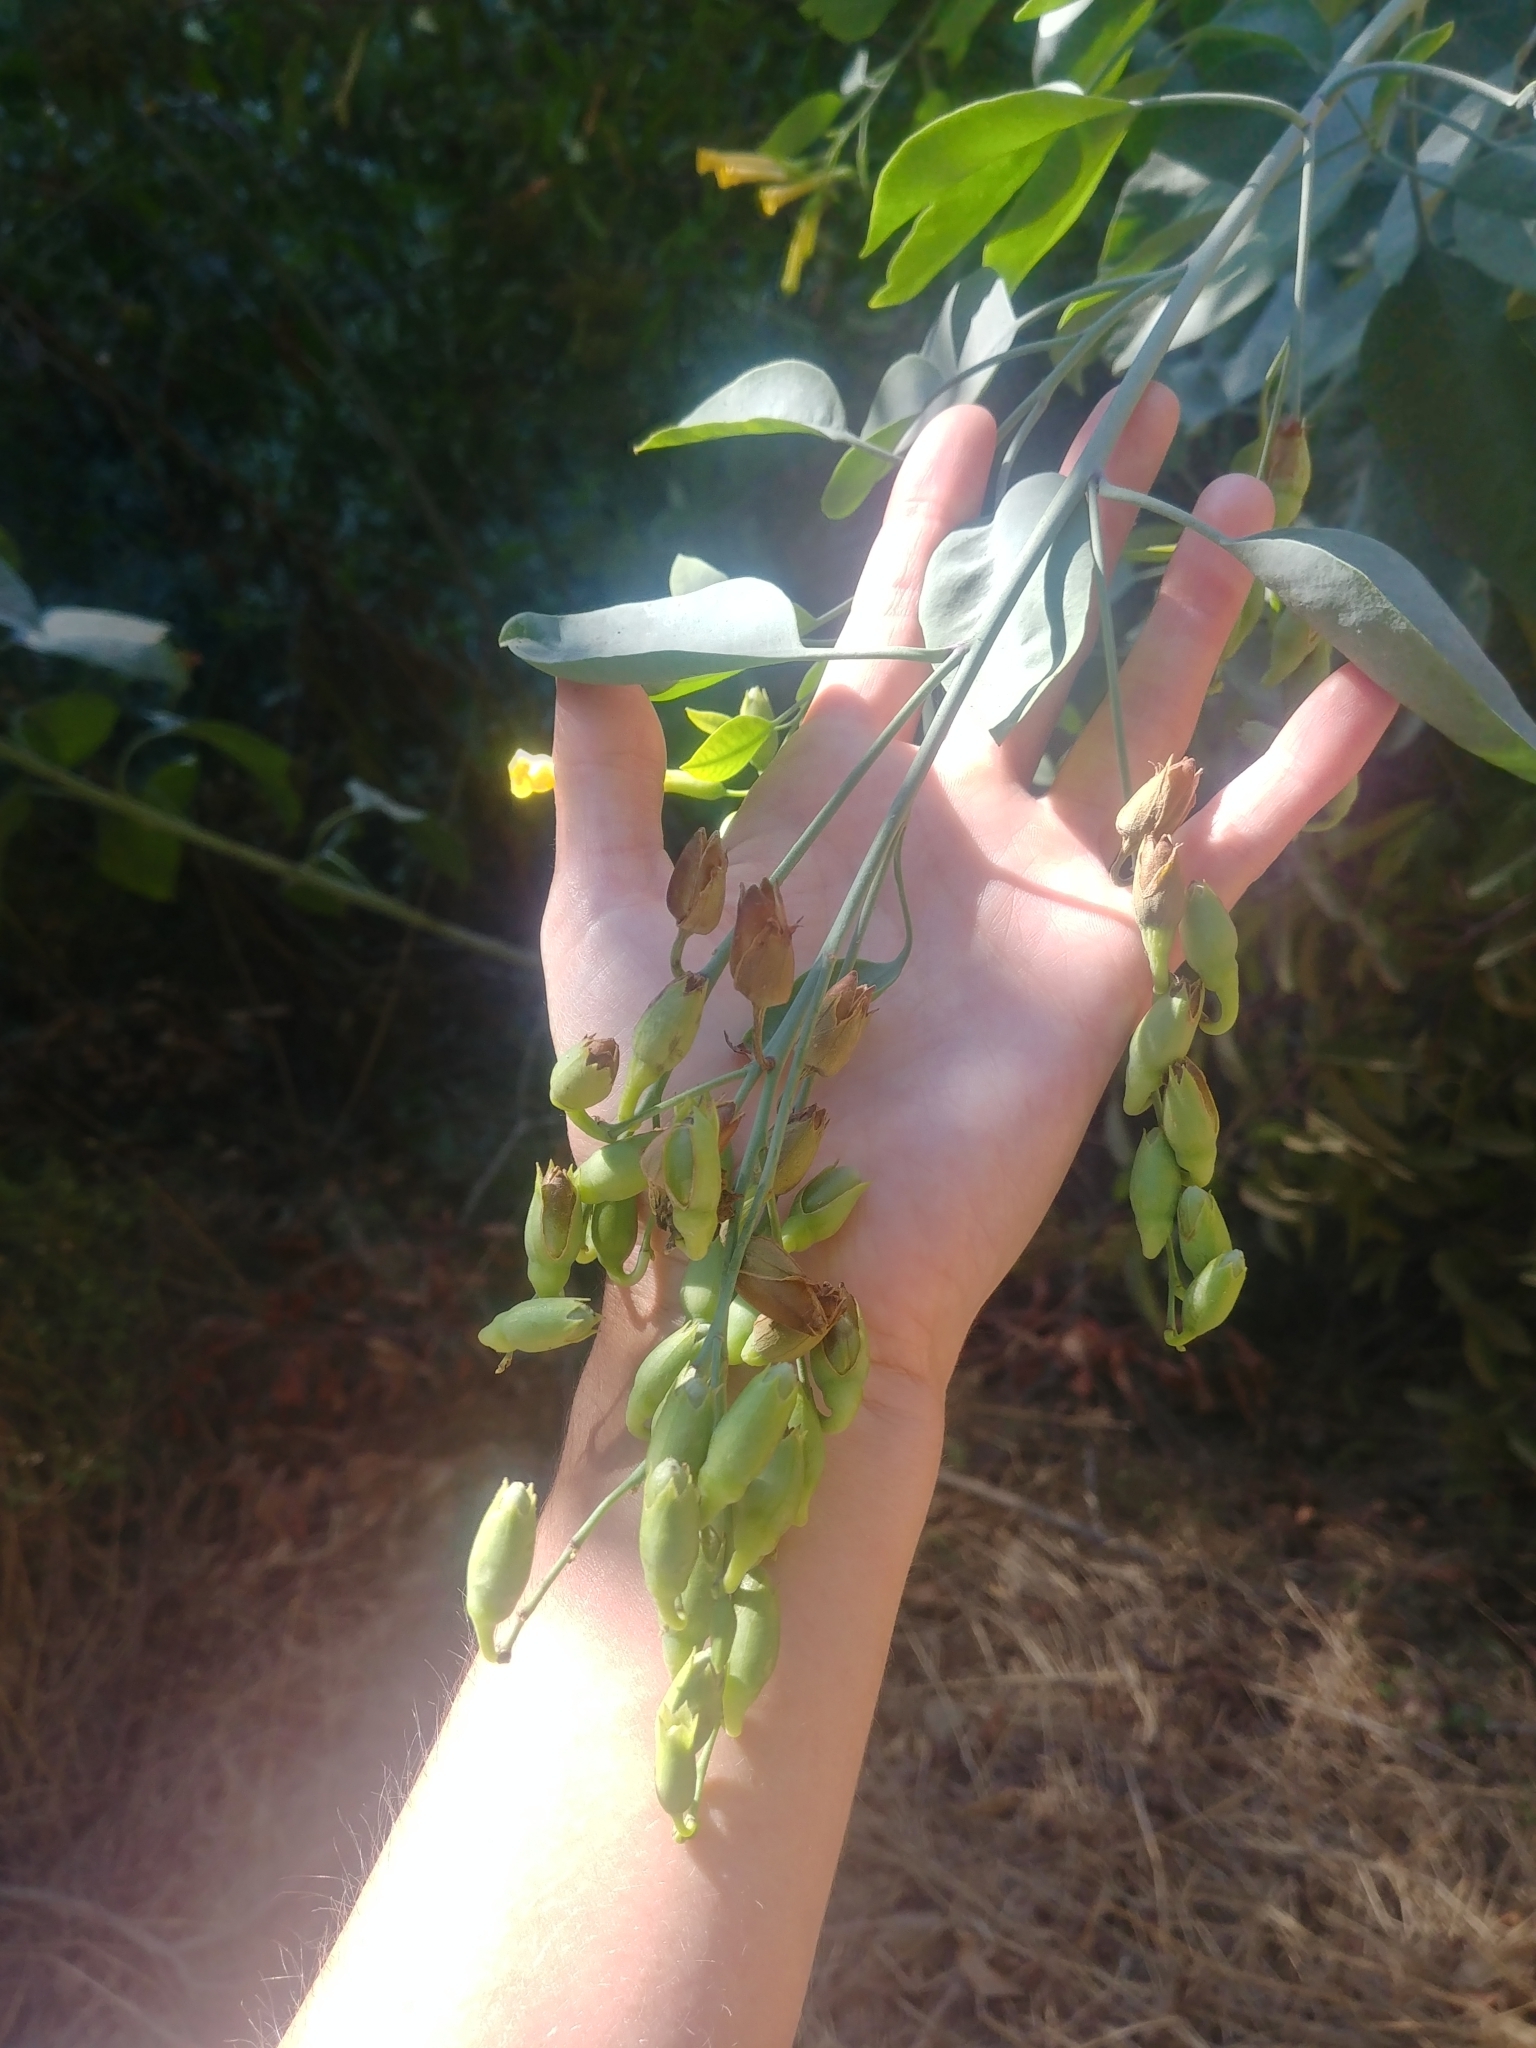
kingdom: Plantae
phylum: Tracheophyta
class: Magnoliopsida
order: Solanales
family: Solanaceae
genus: Nicotiana
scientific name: Nicotiana glauca
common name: Tree tobacco
